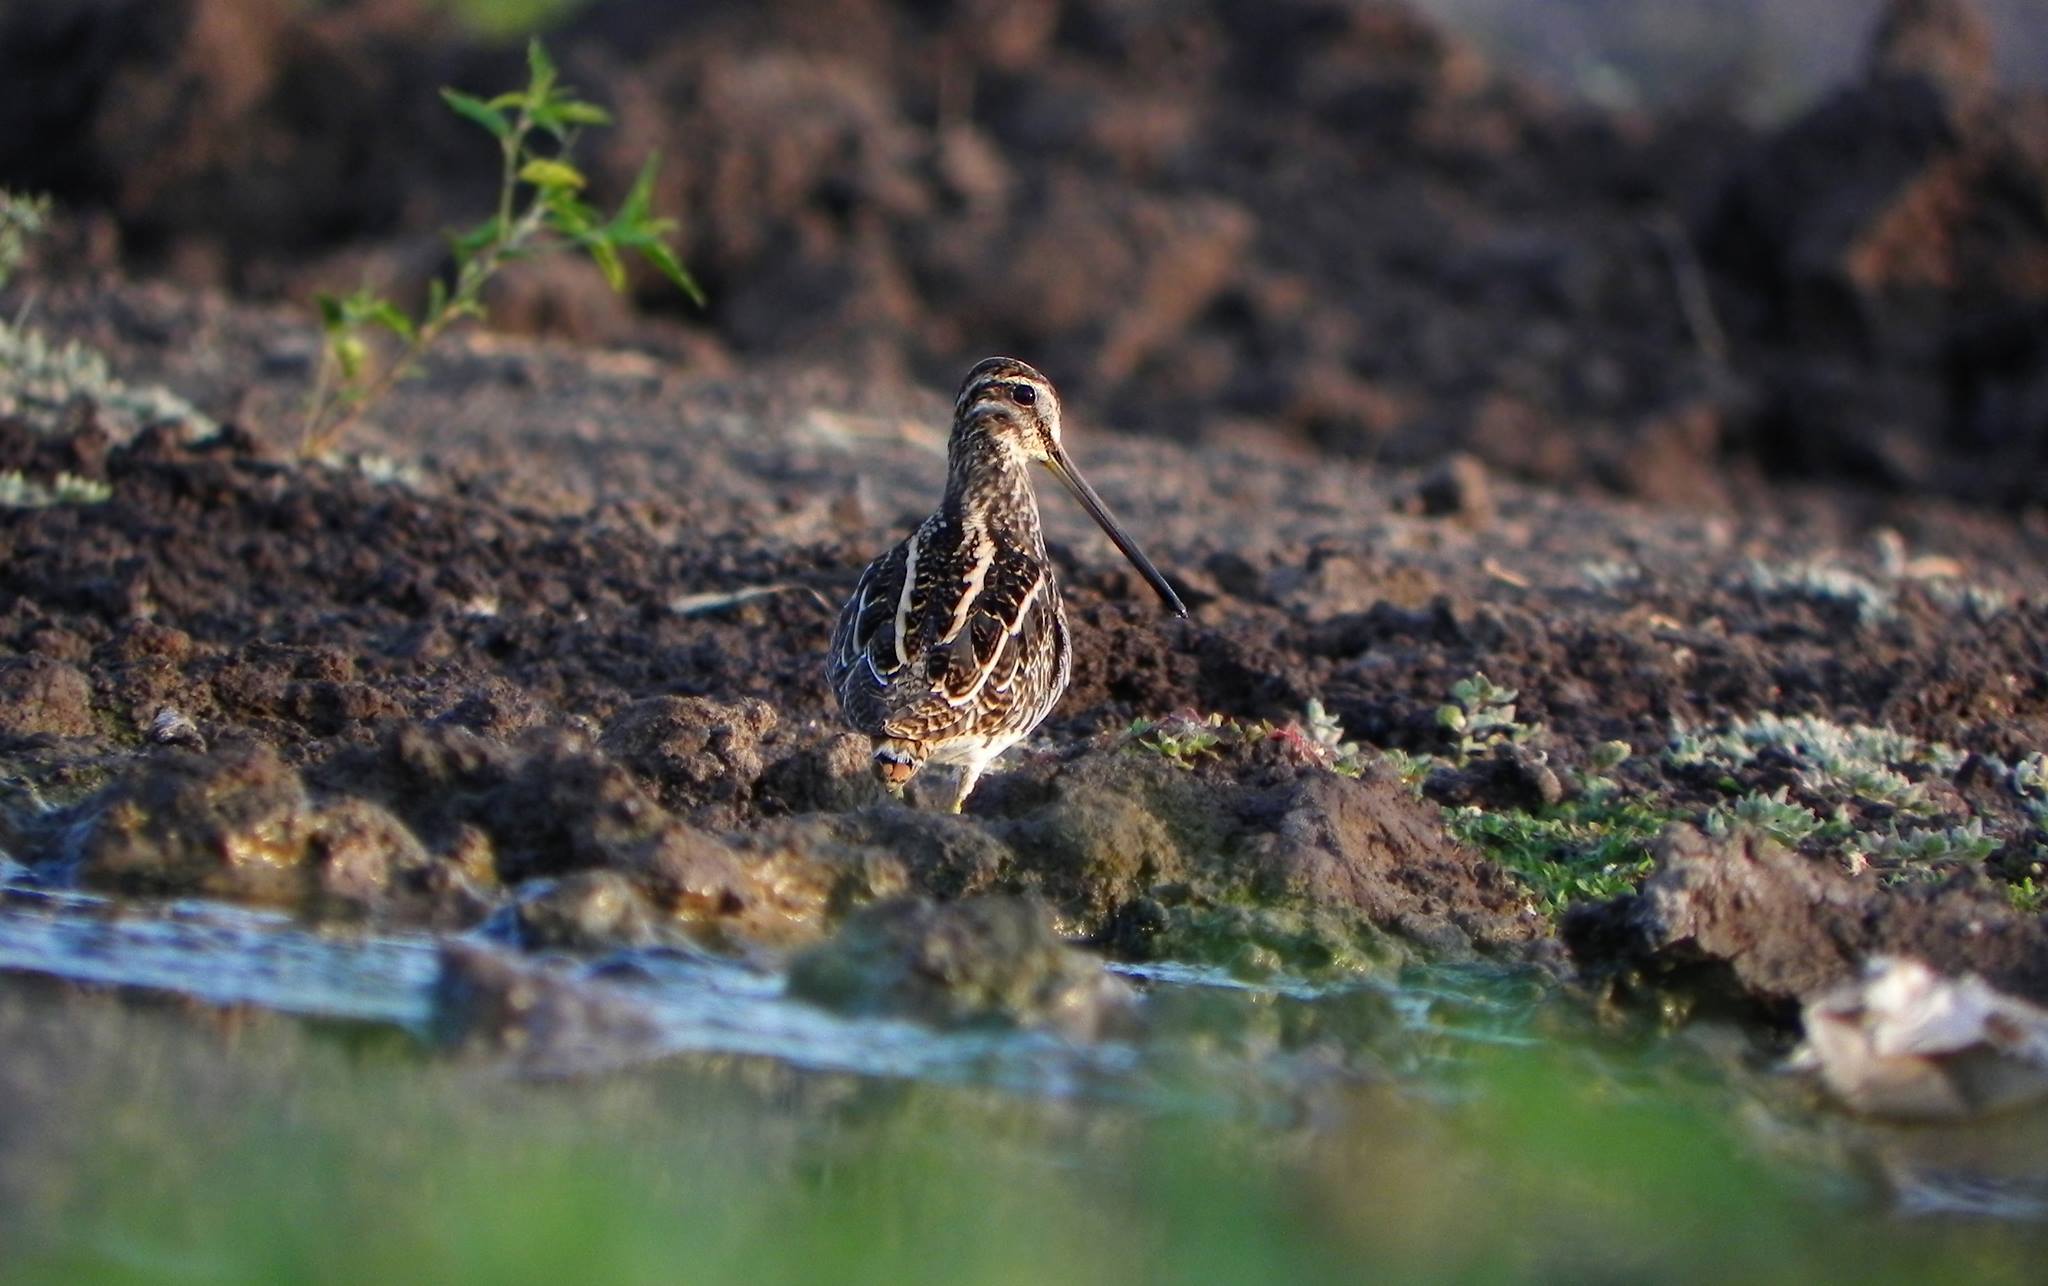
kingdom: Animalia
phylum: Chordata
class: Aves
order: Charadriiformes
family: Scolopacidae
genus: Gallinago
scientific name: Gallinago gallinago
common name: Common snipe
